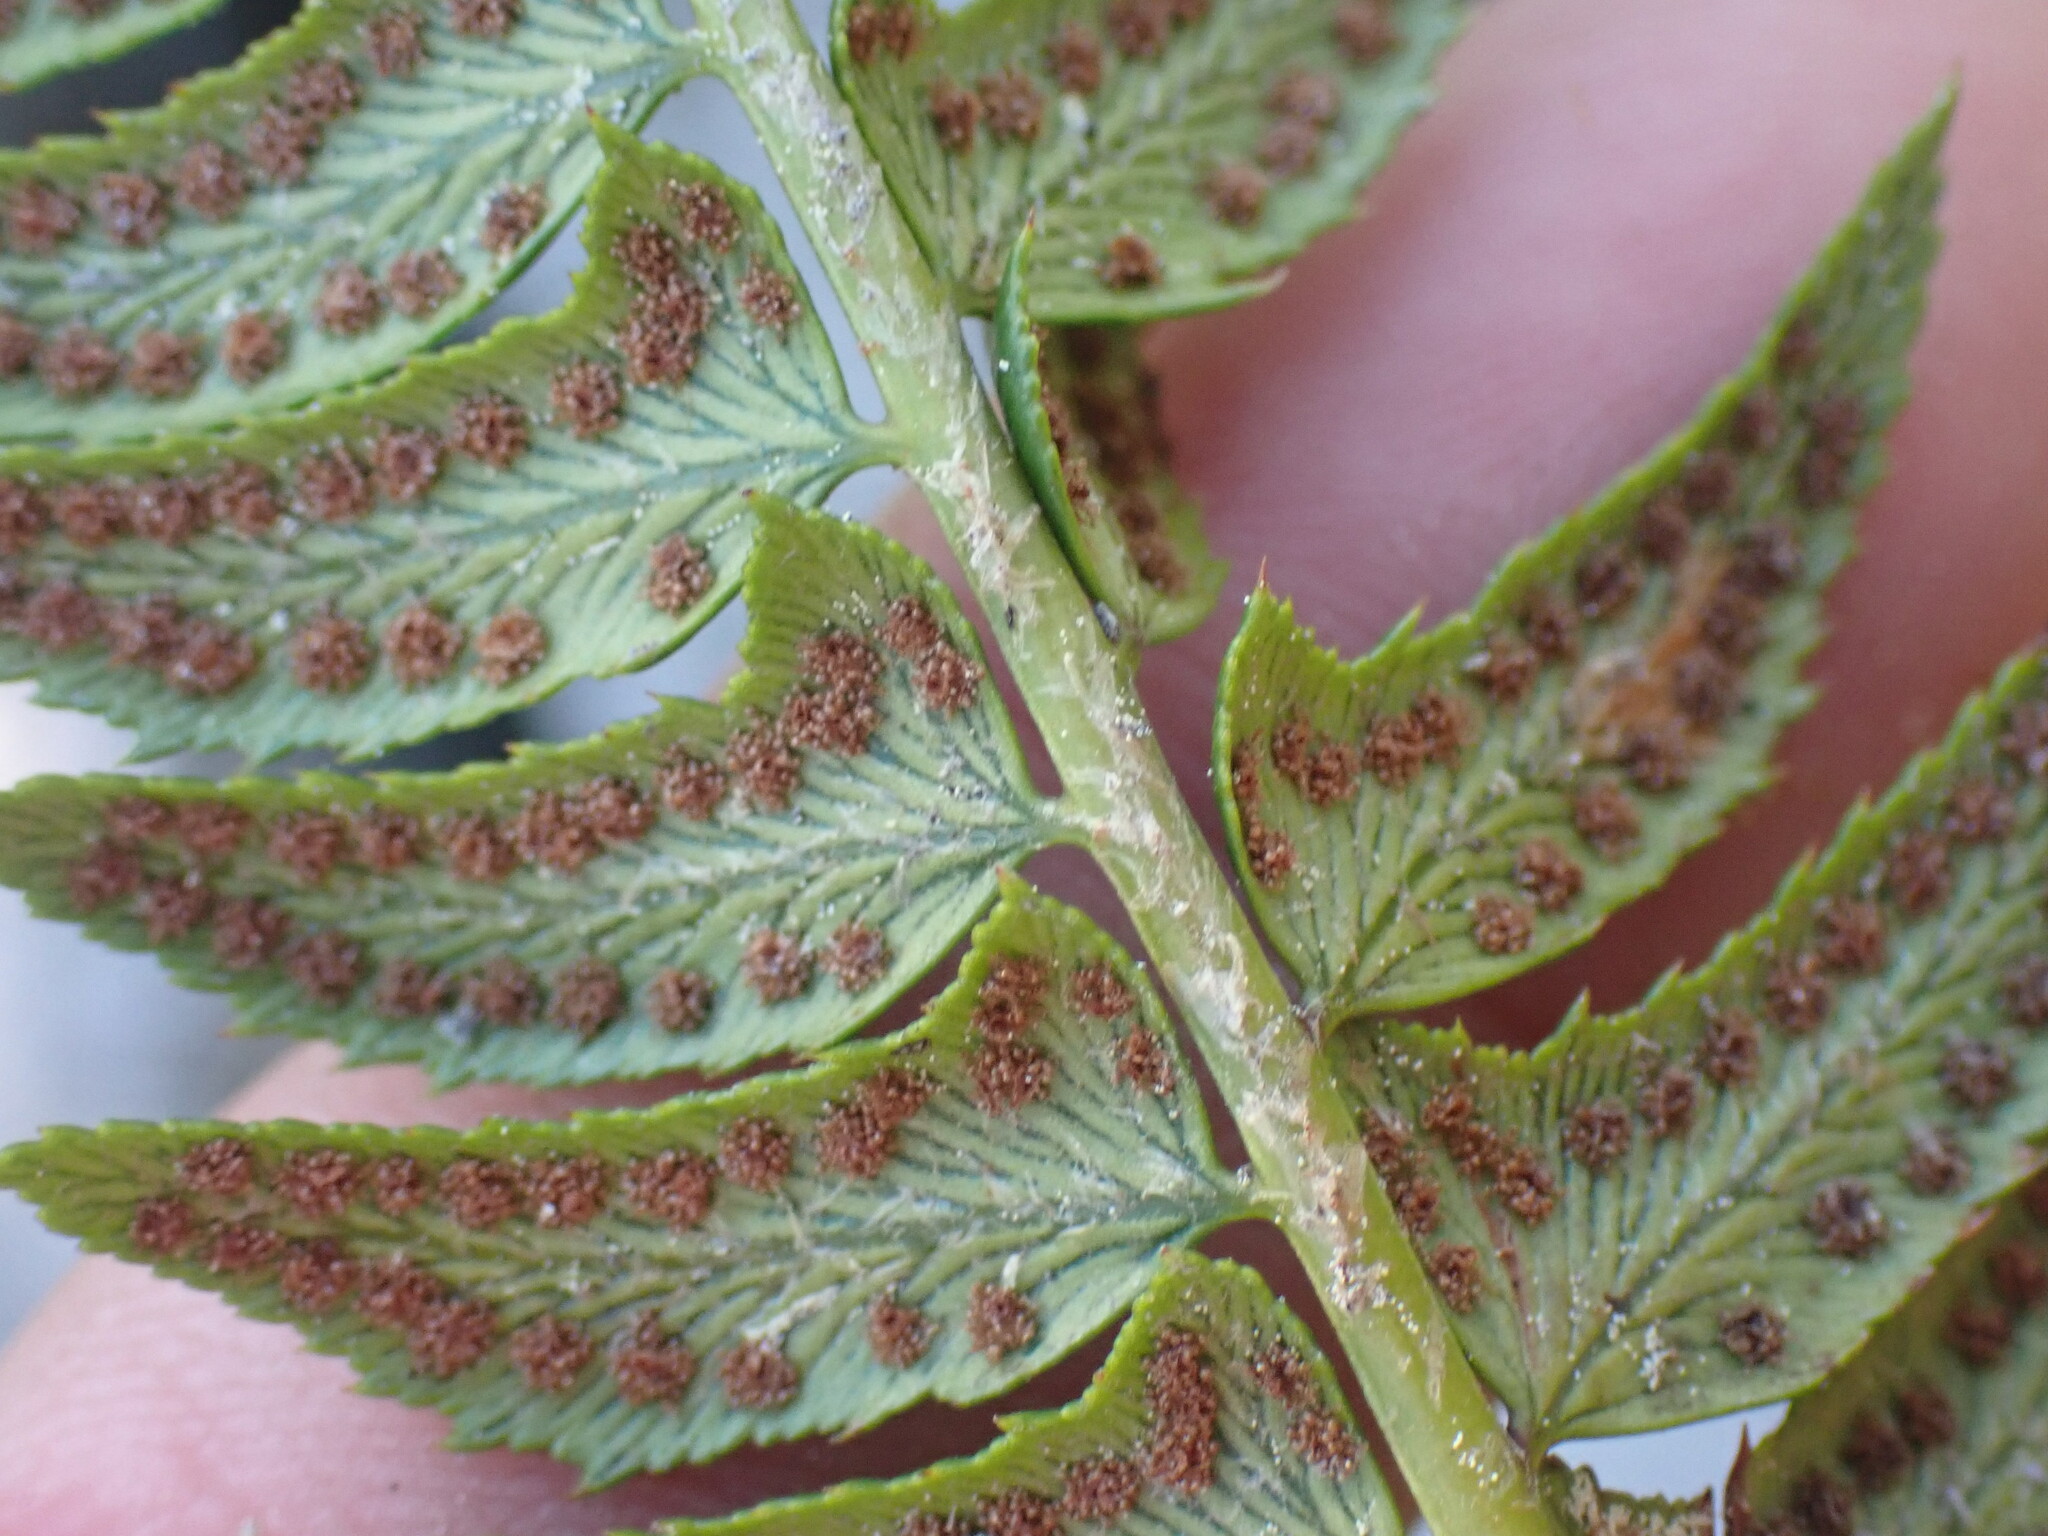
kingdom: Plantae
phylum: Tracheophyta
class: Polypodiopsida
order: Polypodiales
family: Dryopteridaceae
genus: Polystichum
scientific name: Polystichum lonchitis
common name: Holly fern
